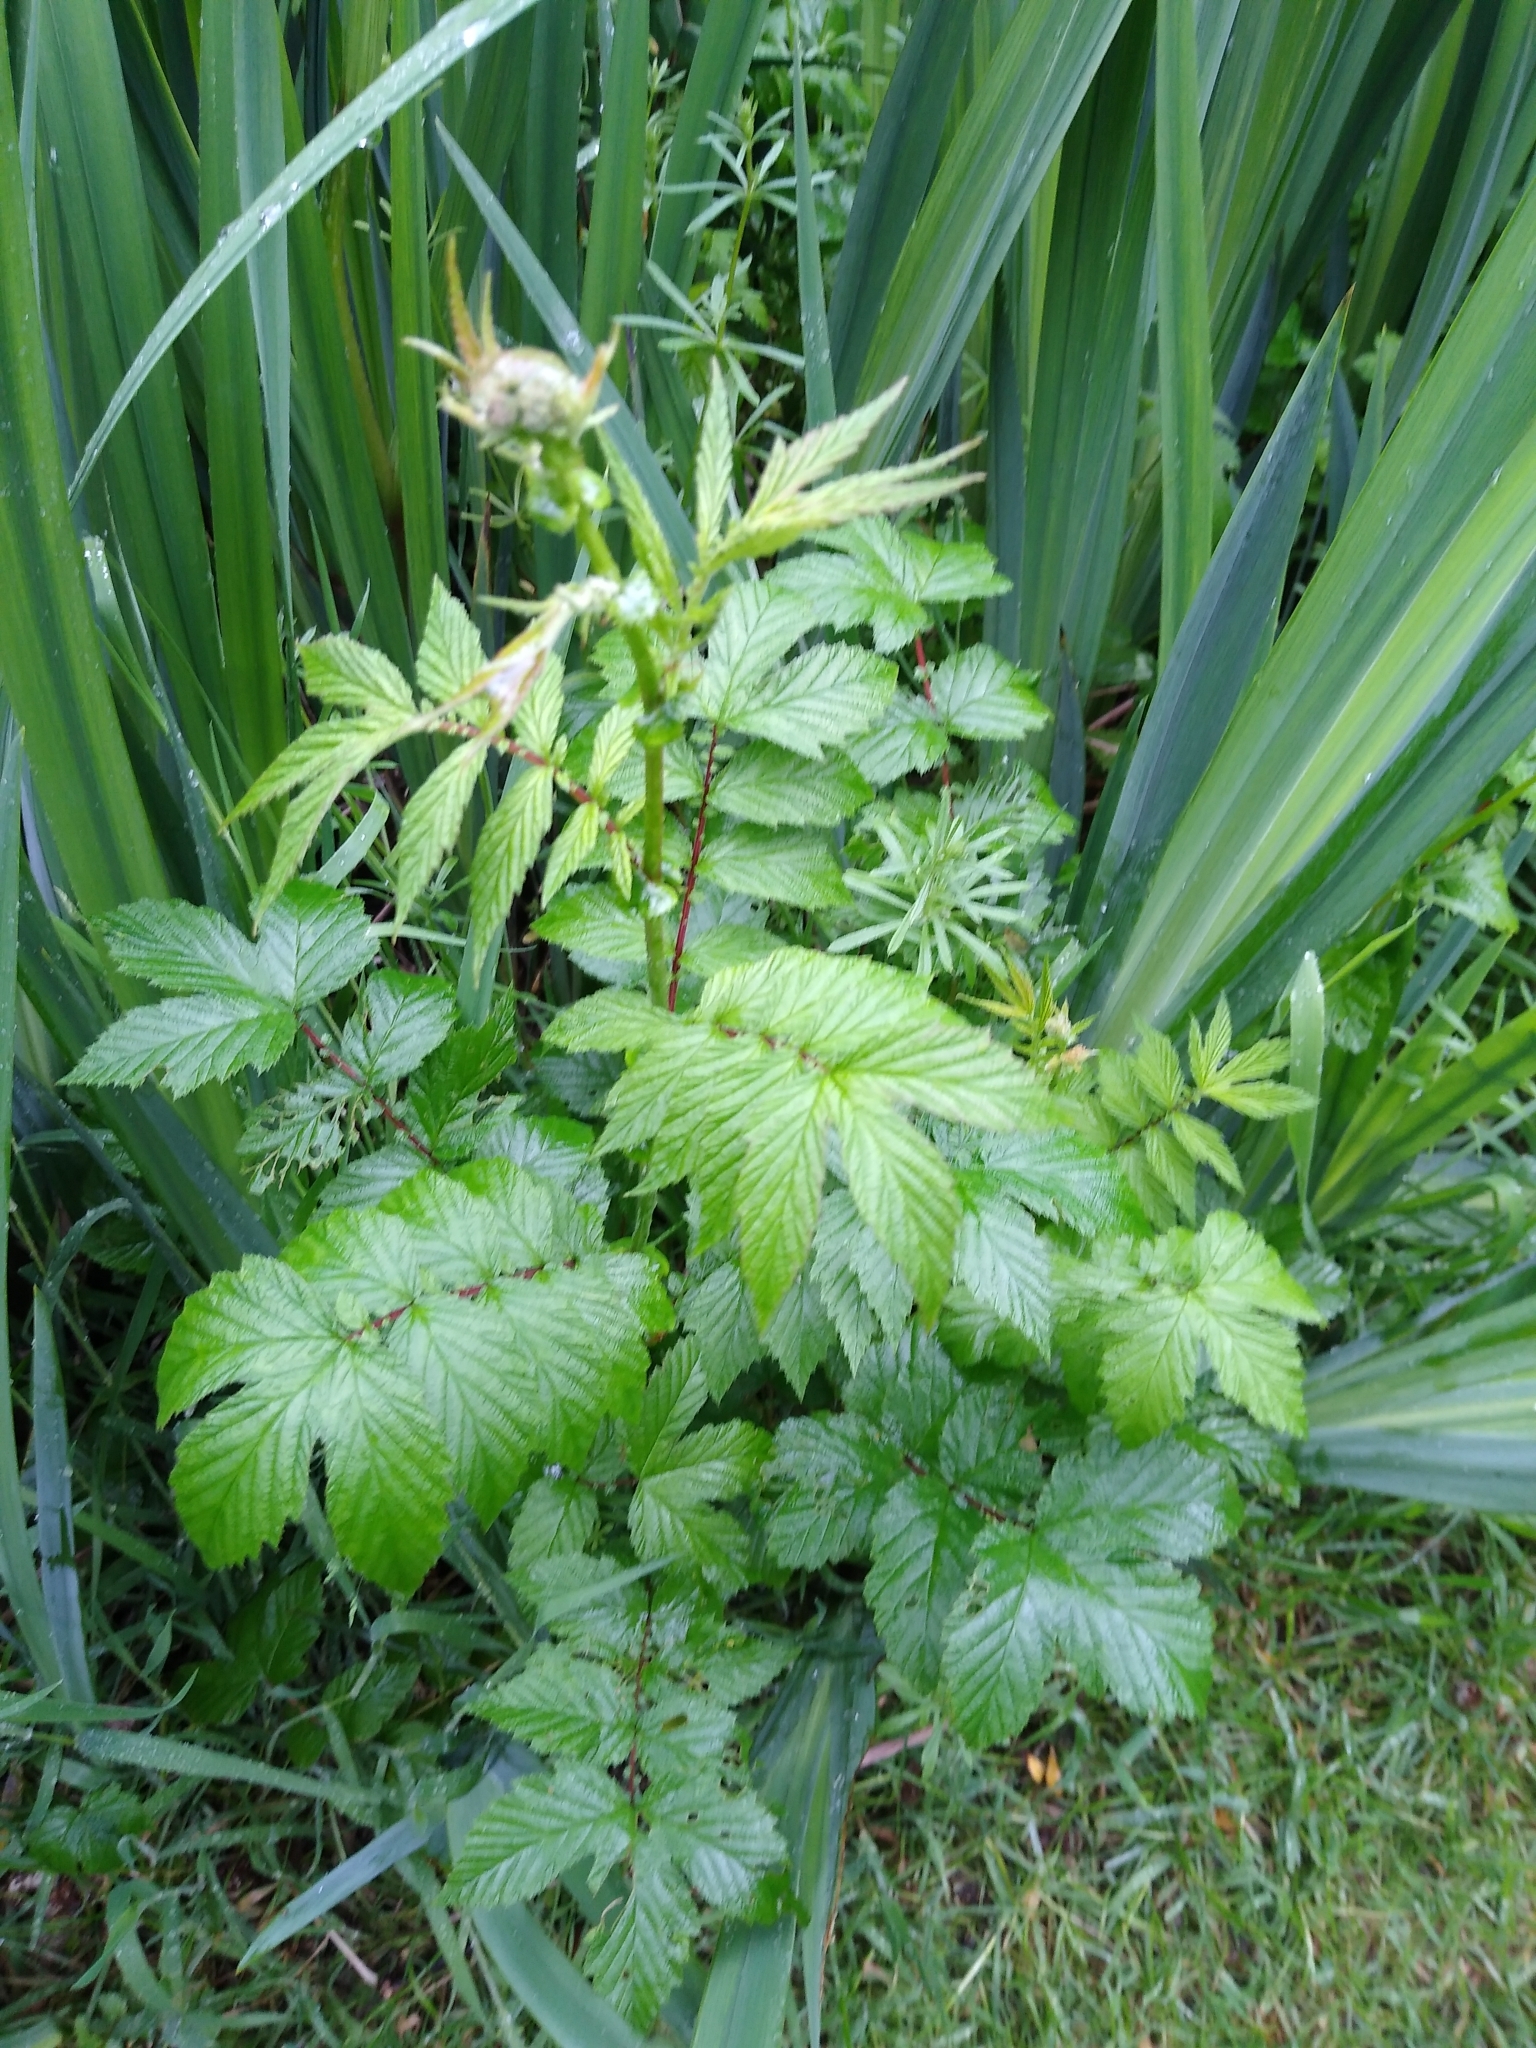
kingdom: Plantae
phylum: Tracheophyta
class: Magnoliopsida
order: Rosales
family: Rosaceae
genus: Filipendula
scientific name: Filipendula ulmaria
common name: Meadowsweet
